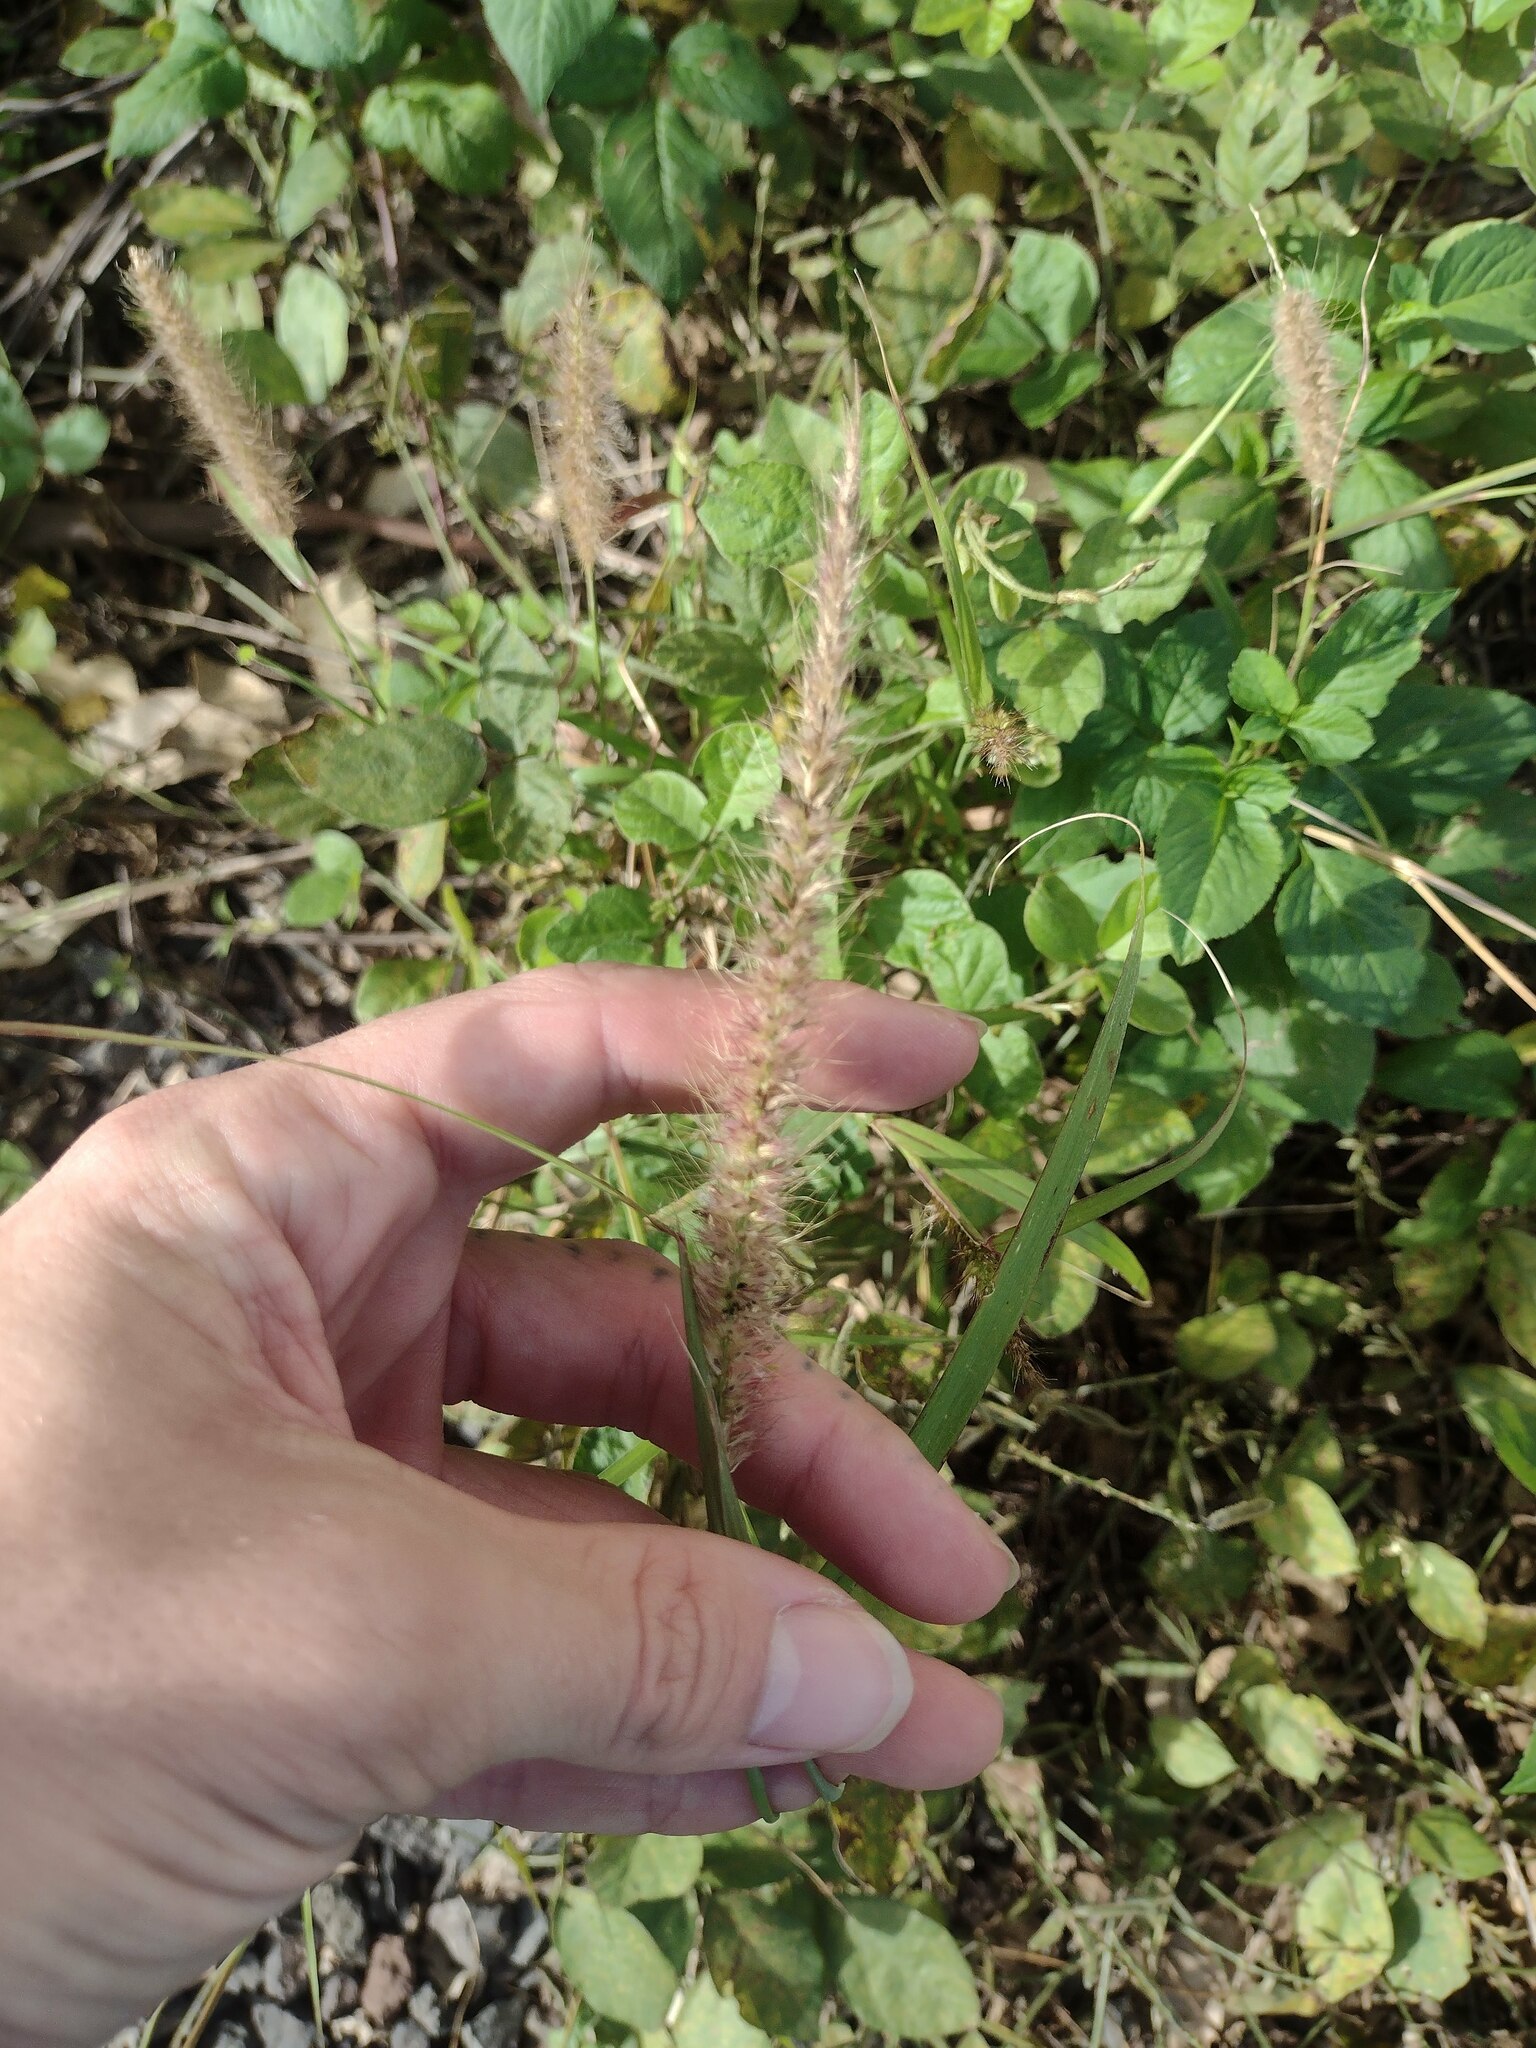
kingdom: Plantae
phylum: Tracheophyta
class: Liliopsida
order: Poales
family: Poaceae
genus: Cenchrus
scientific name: Cenchrus setosus
